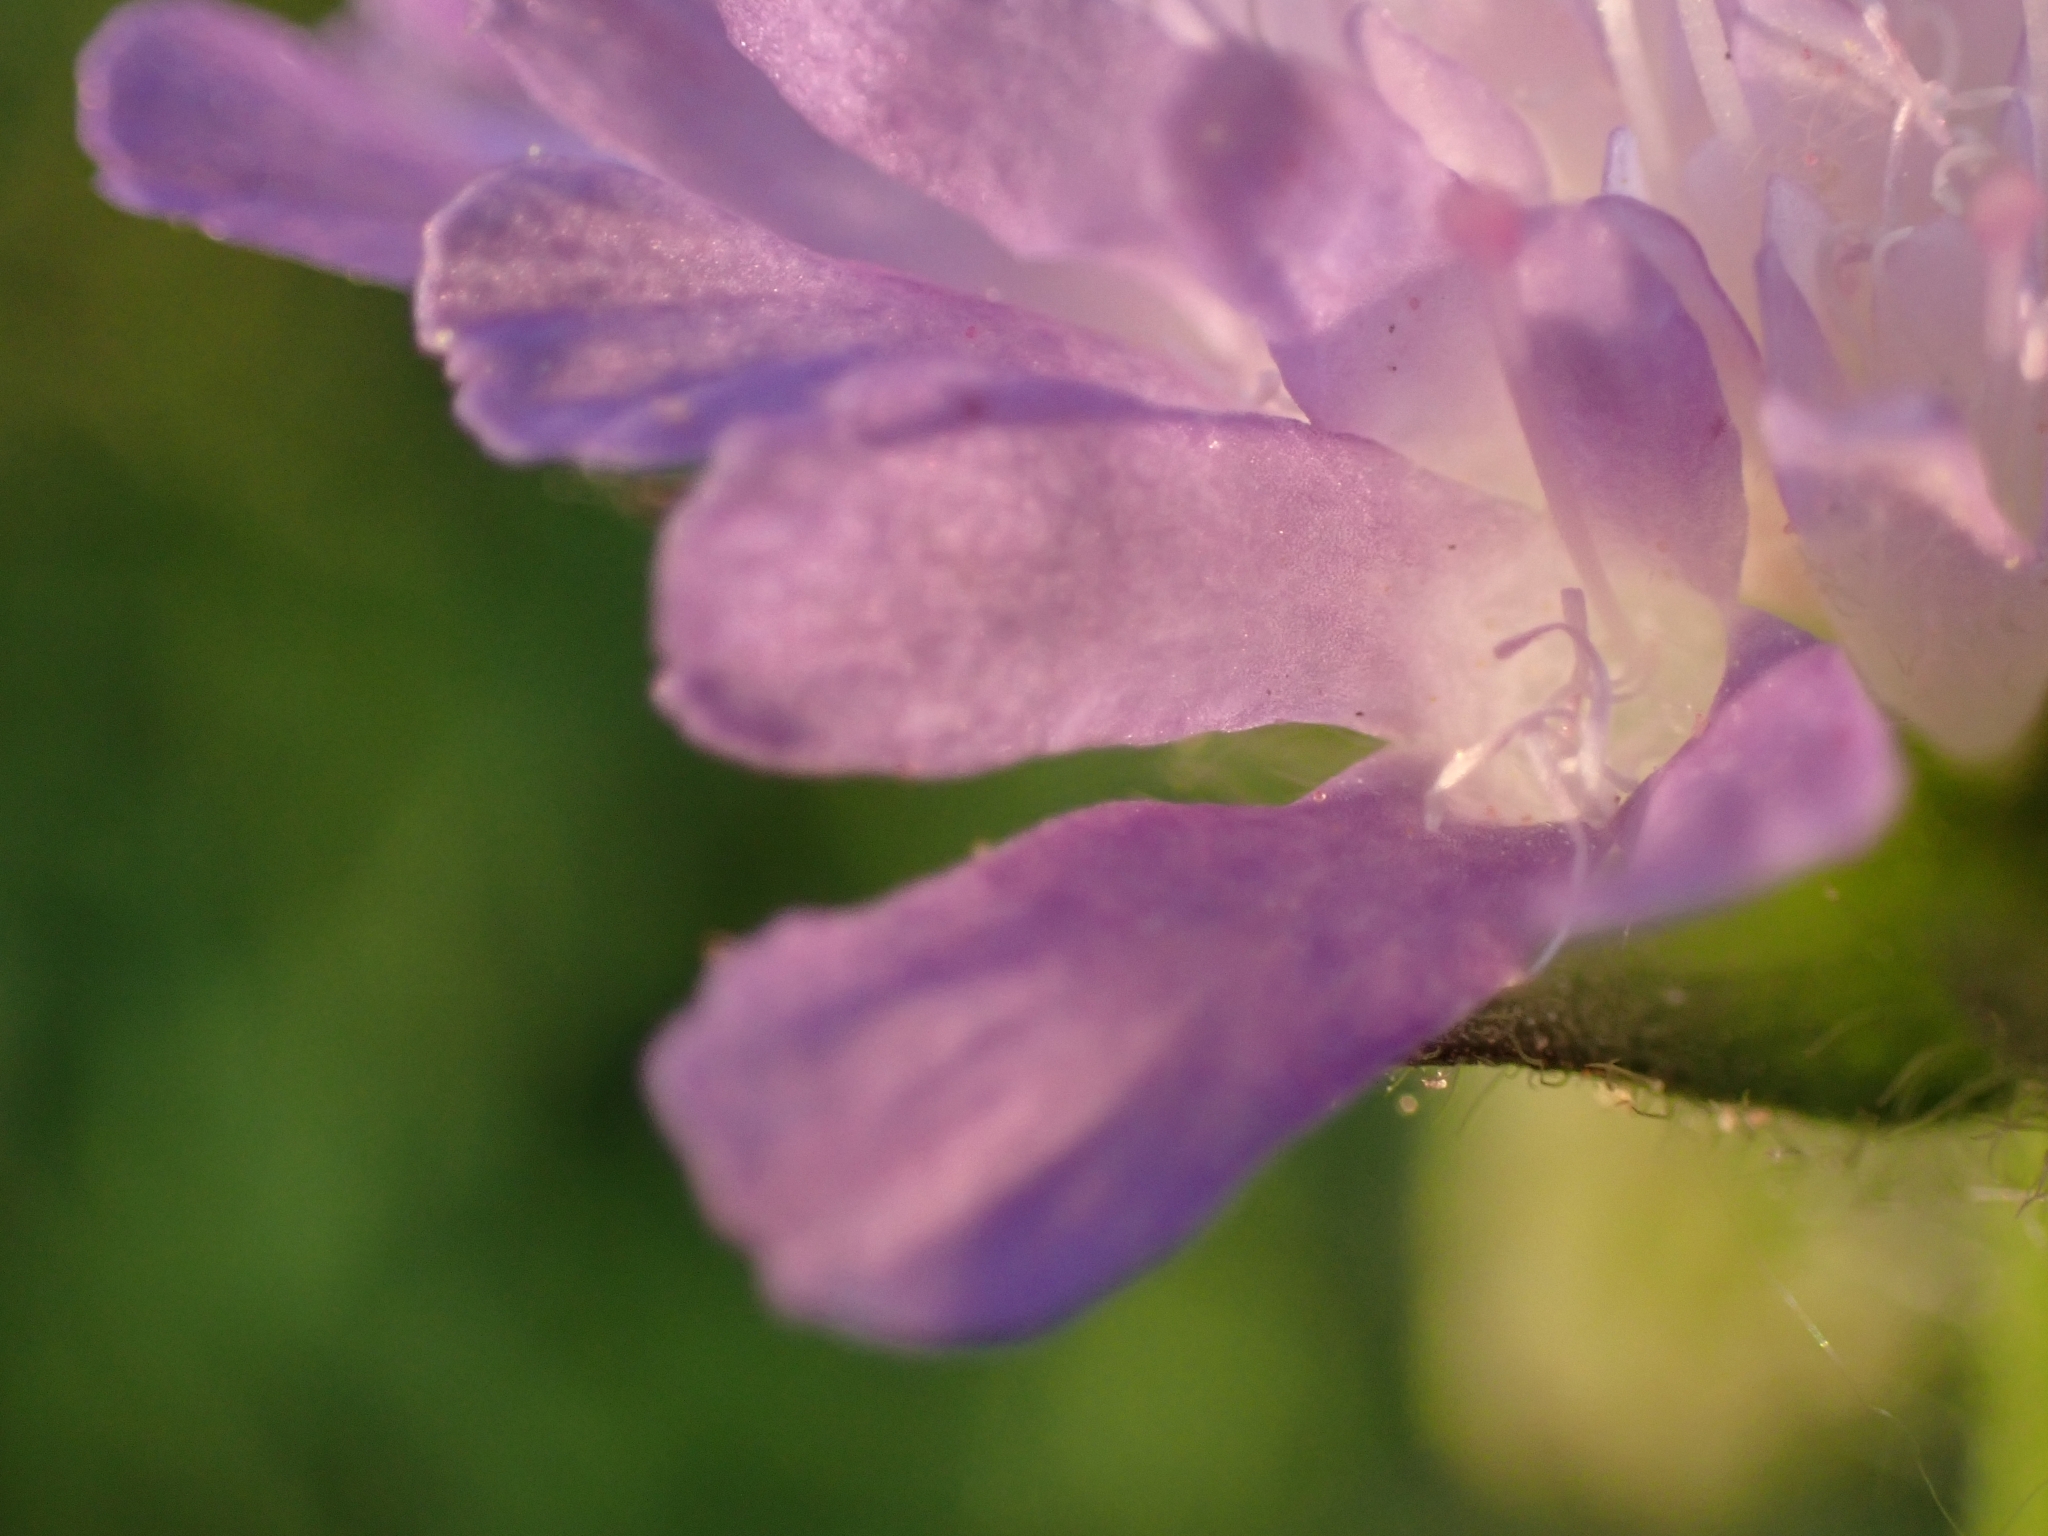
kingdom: Plantae
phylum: Tracheophyta
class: Magnoliopsida
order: Dipsacales
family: Caprifoliaceae
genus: Knautia
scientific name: Knautia arvensis
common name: Field scabiosa
